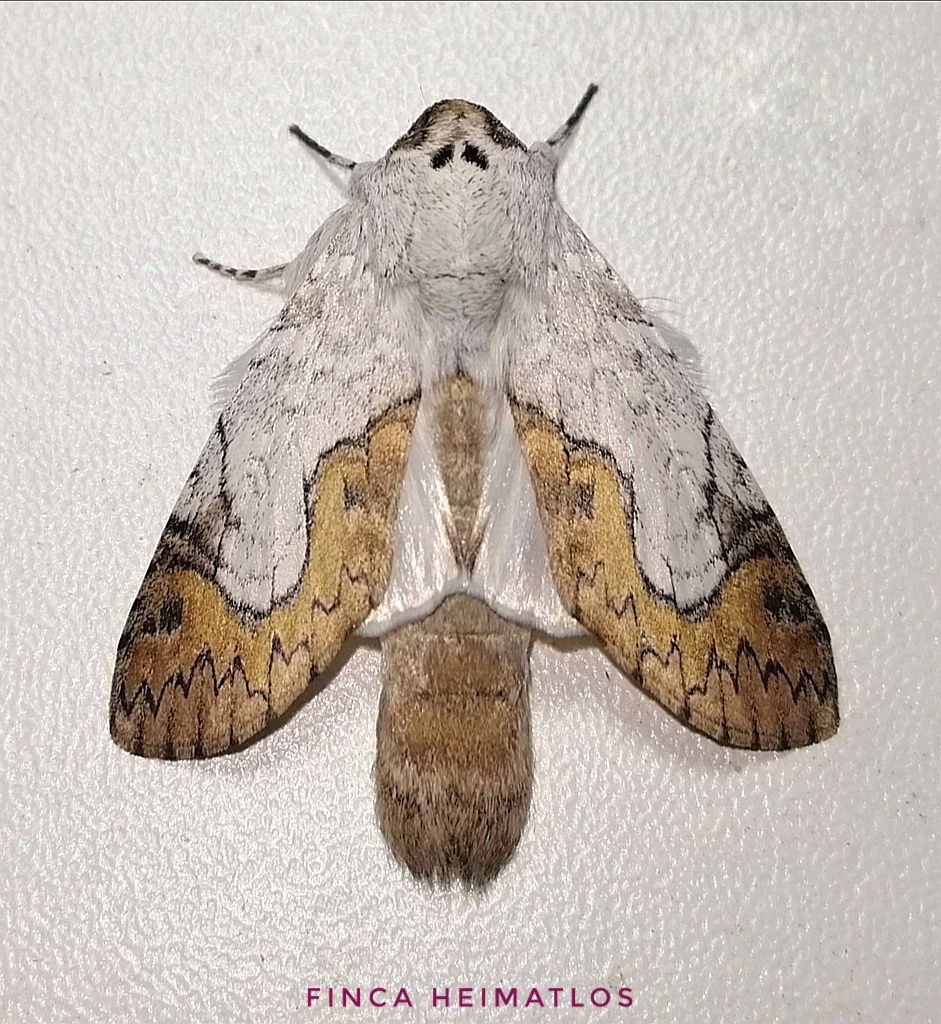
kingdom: Animalia
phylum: Arthropoda
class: Insecta
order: Lepidoptera
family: Notodontidae
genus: Ginaldia
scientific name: Ginaldia
